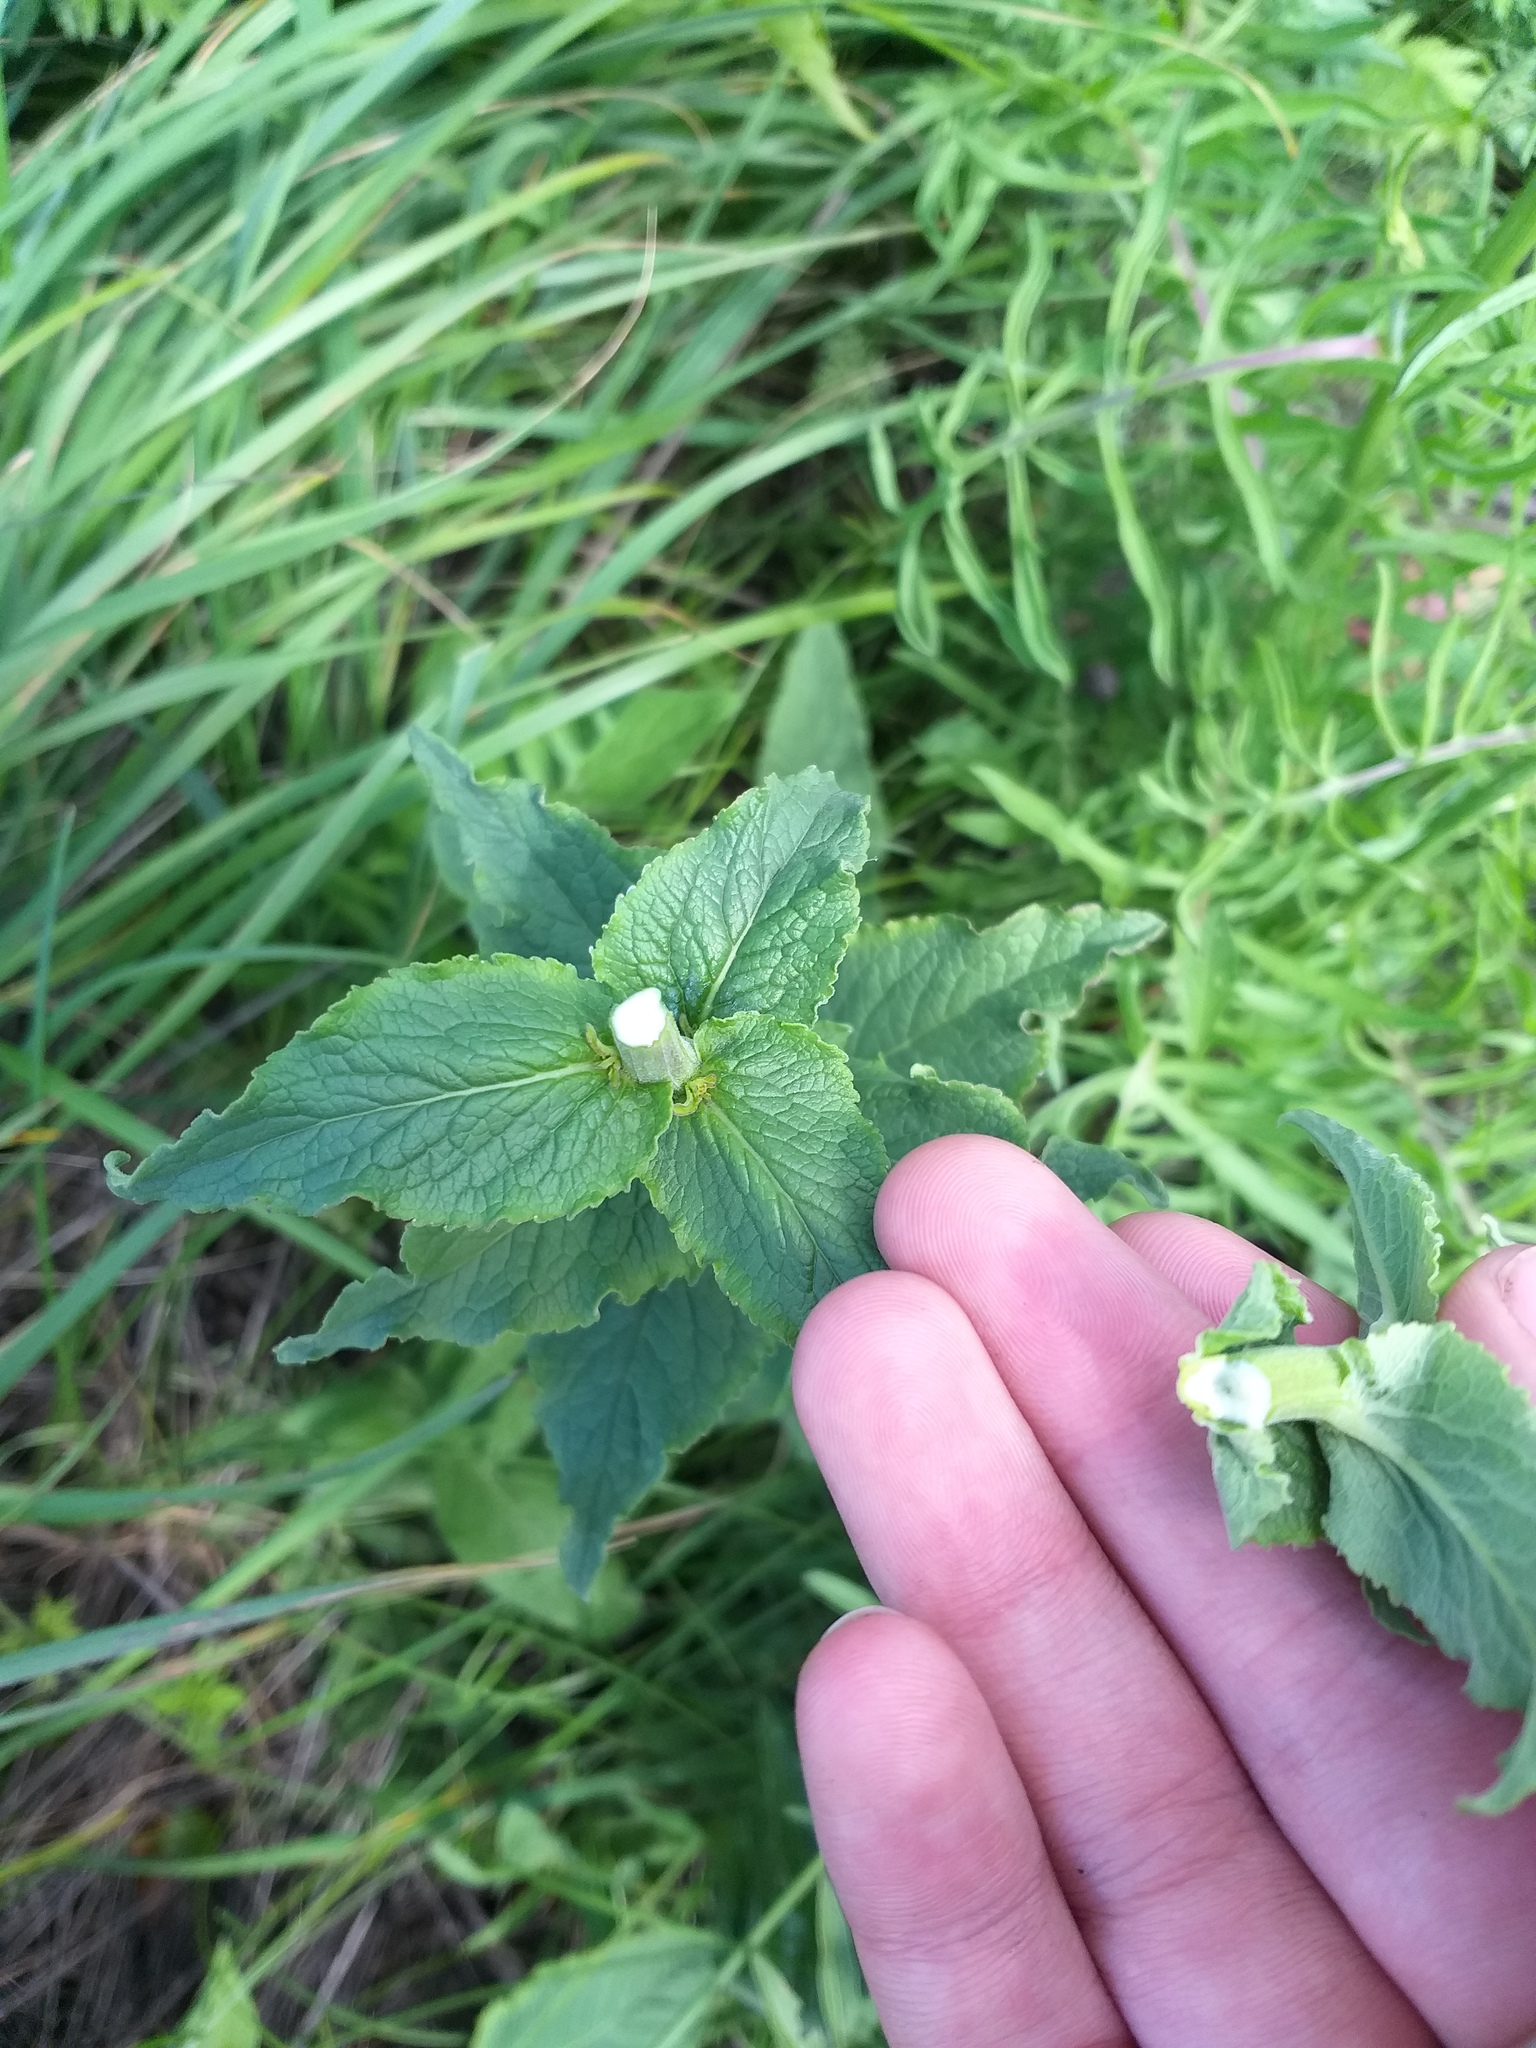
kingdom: Plantae
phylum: Tracheophyta
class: Magnoliopsida
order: Asterales
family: Campanulaceae
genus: Campanula
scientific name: Campanula bononiensis
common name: Pale bellflower
